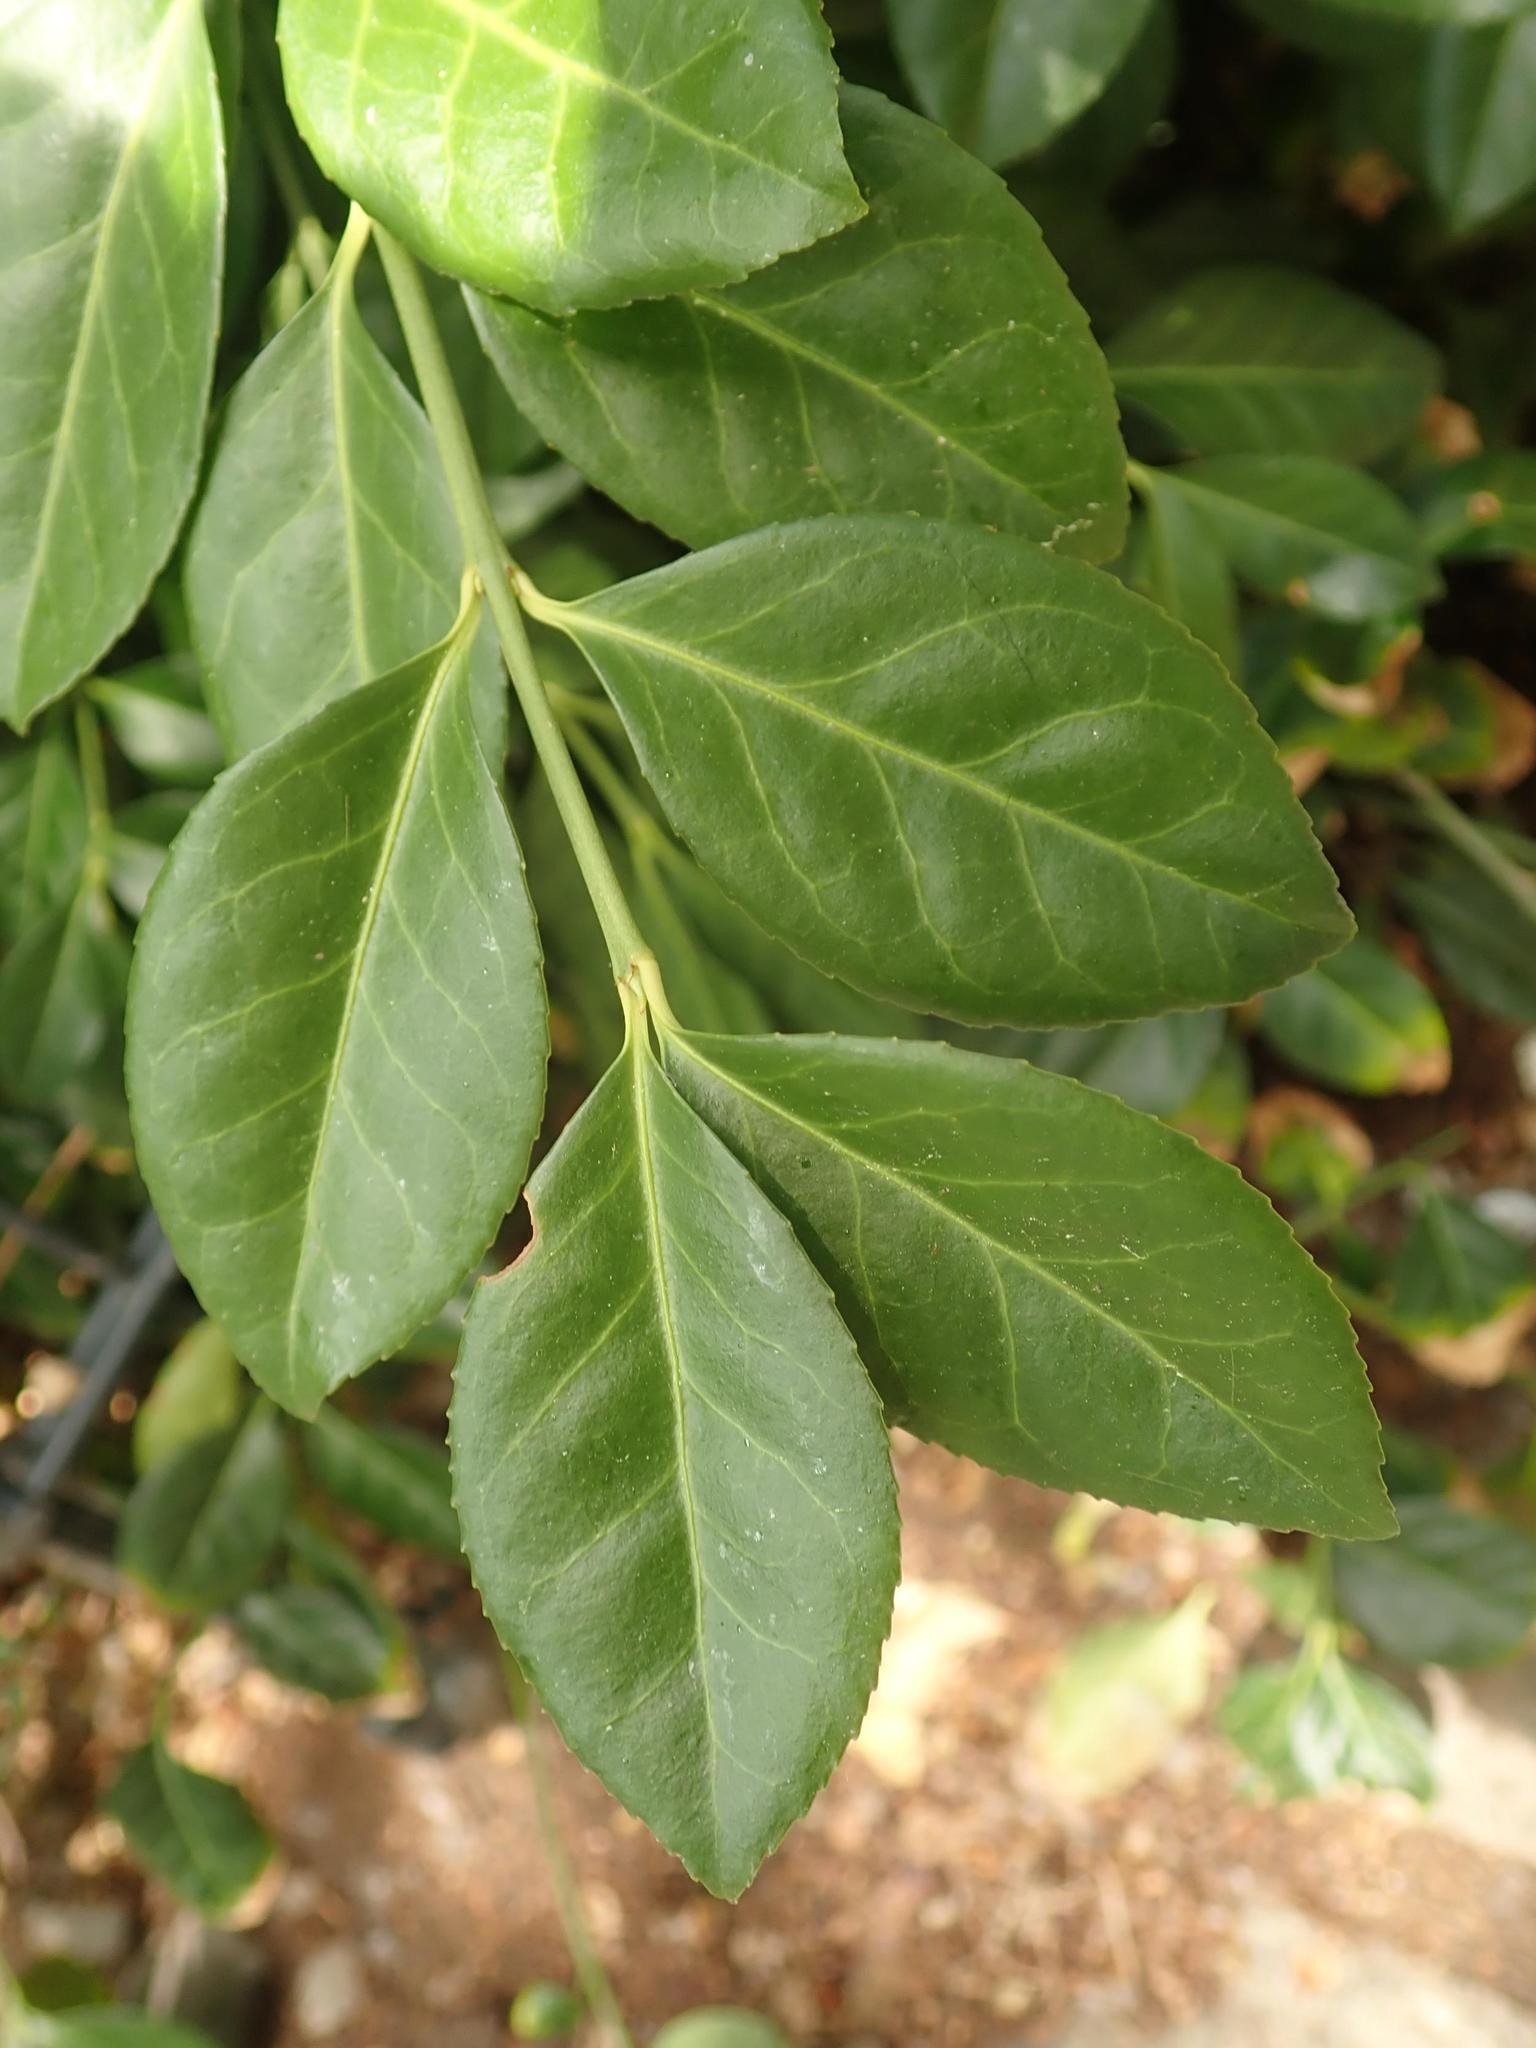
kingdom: Plantae
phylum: Tracheophyta
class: Magnoliopsida
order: Celastrales
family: Celastraceae
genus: Euonymus
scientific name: Euonymus fortunei
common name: Climbing euonymus
